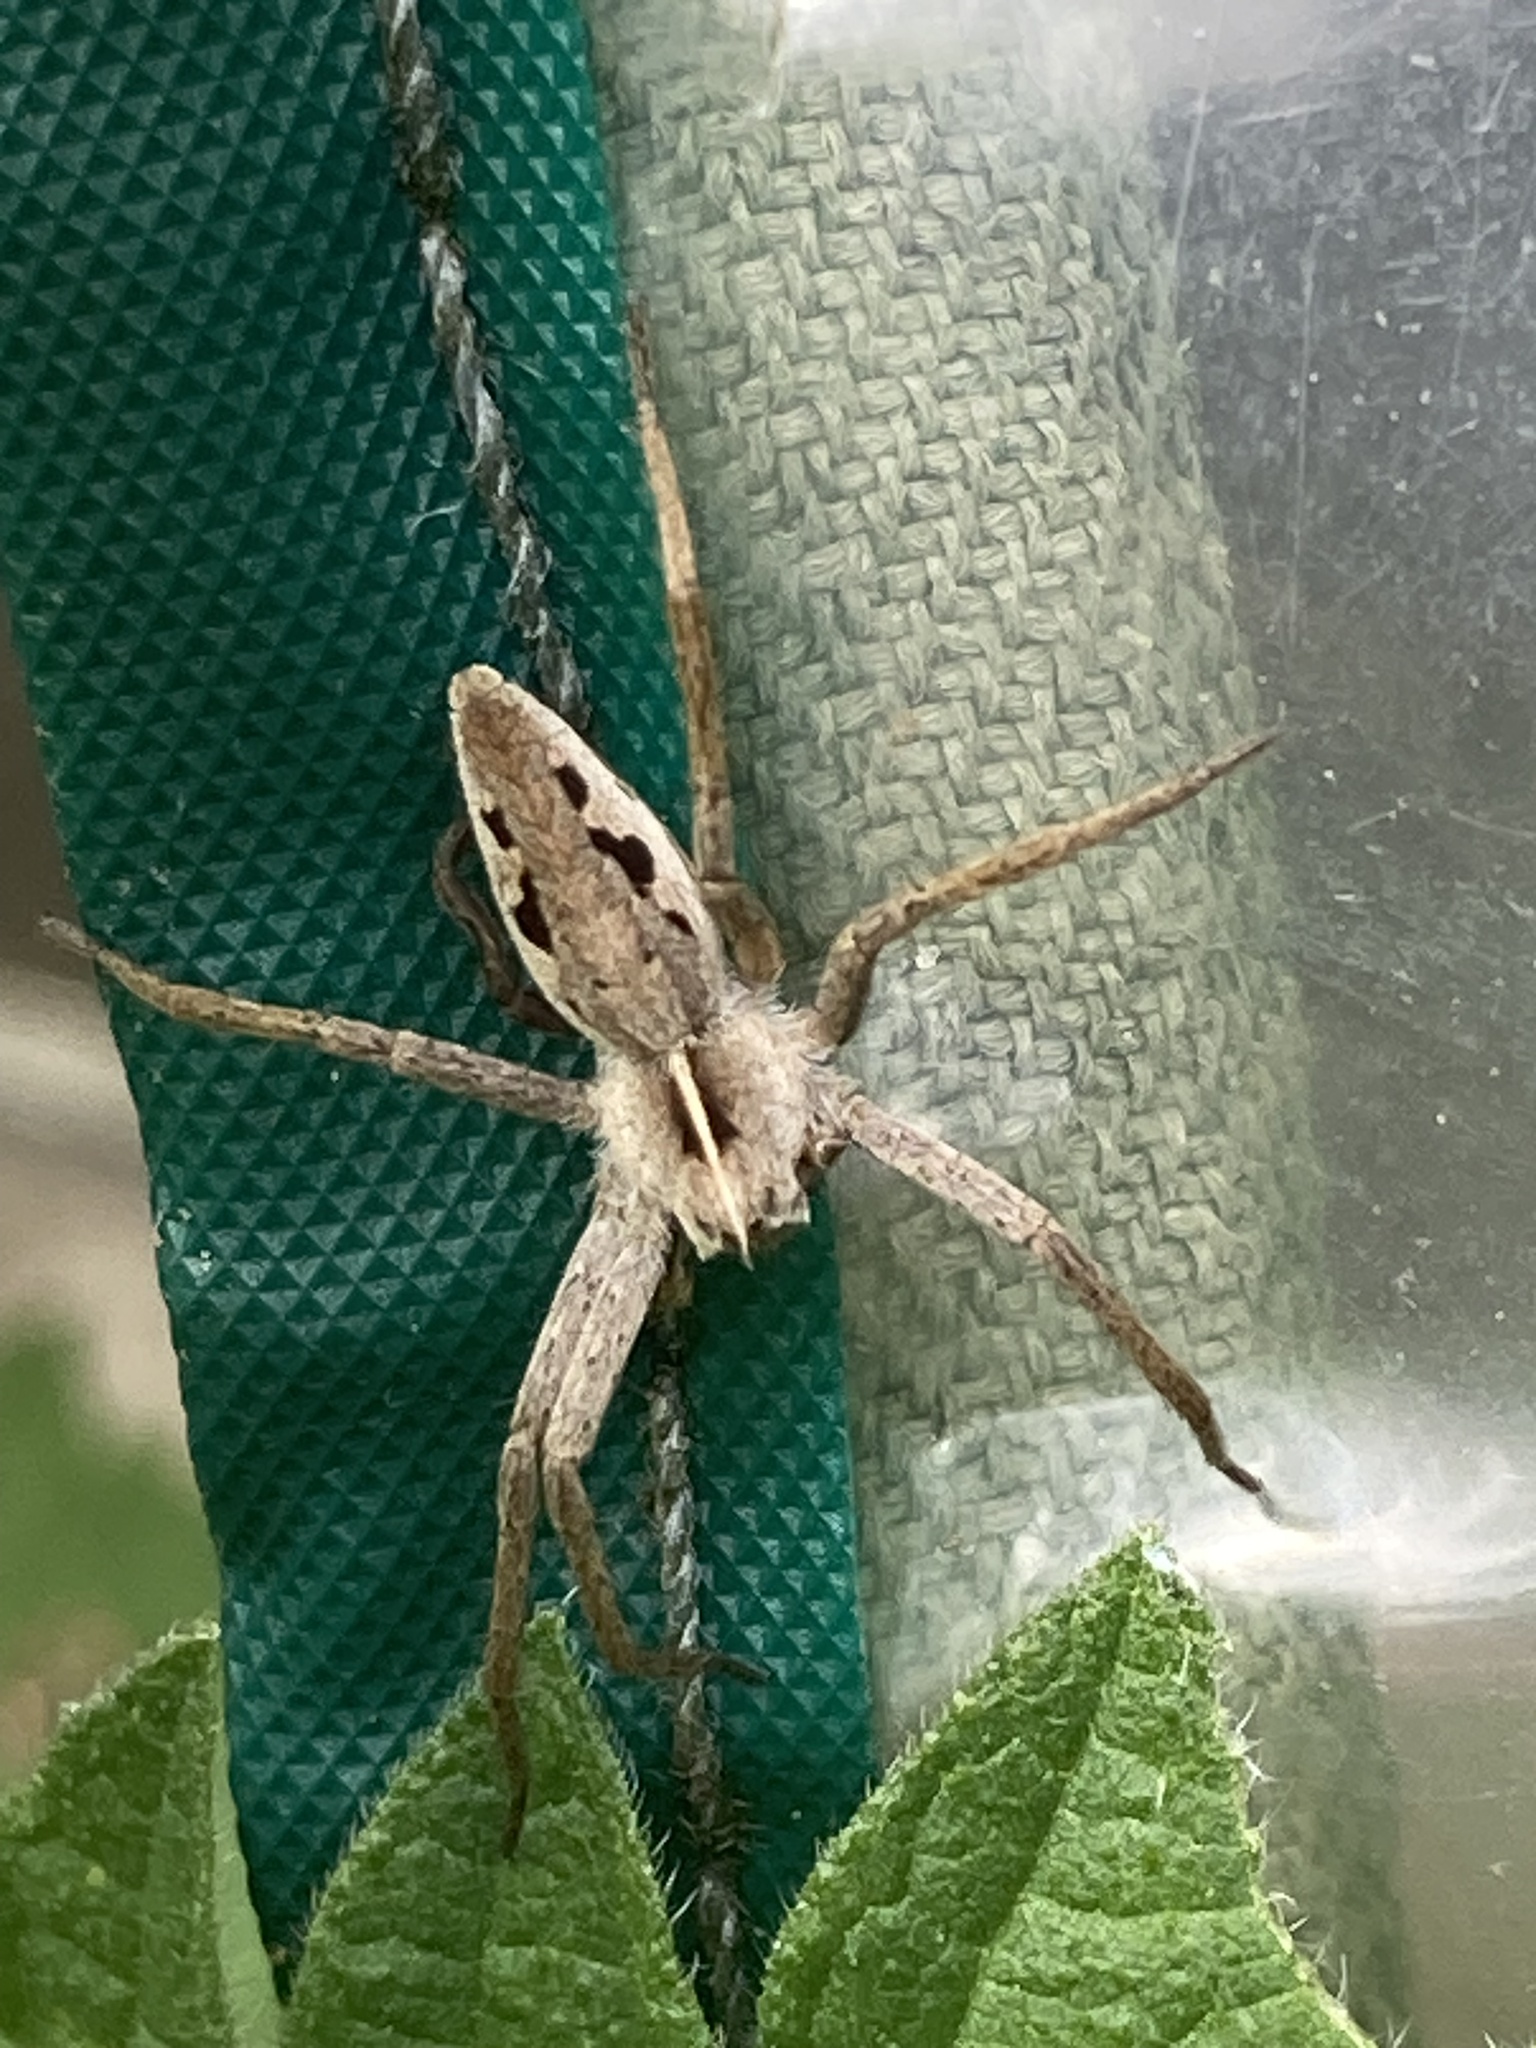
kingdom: Animalia
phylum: Arthropoda
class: Arachnida
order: Araneae
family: Pisauridae
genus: Pisaura
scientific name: Pisaura mirabilis
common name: Tent spider
